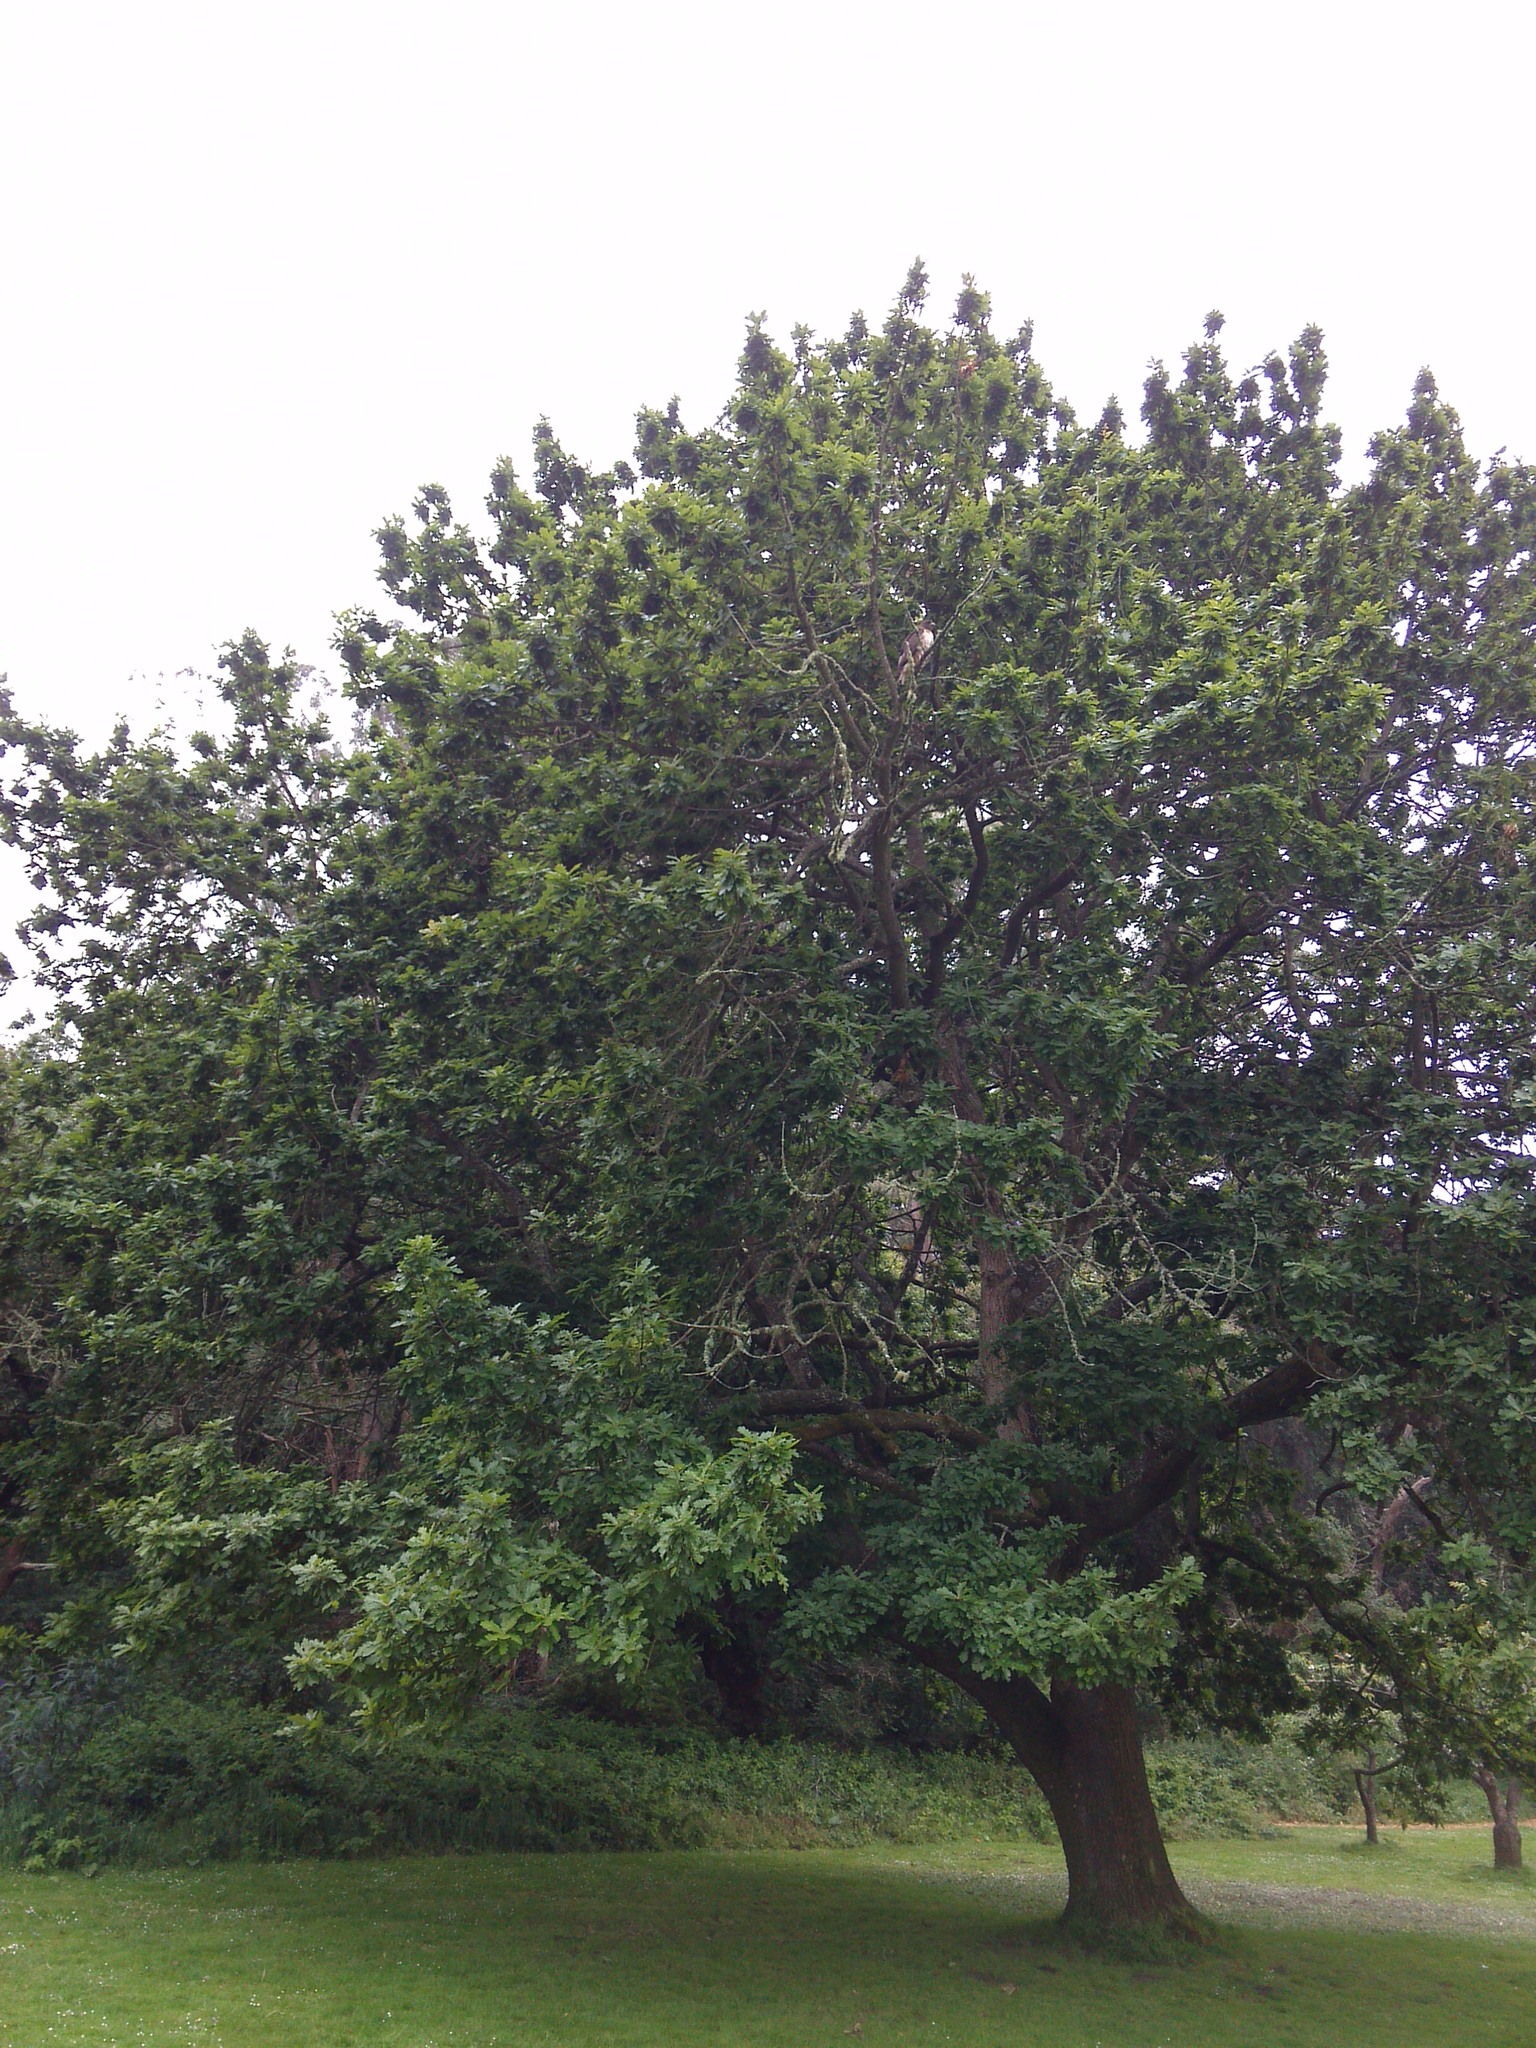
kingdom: Animalia
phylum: Chordata
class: Aves
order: Accipitriformes
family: Accipitridae
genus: Buteo
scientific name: Buteo jamaicensis
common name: Red-tailed hawk
